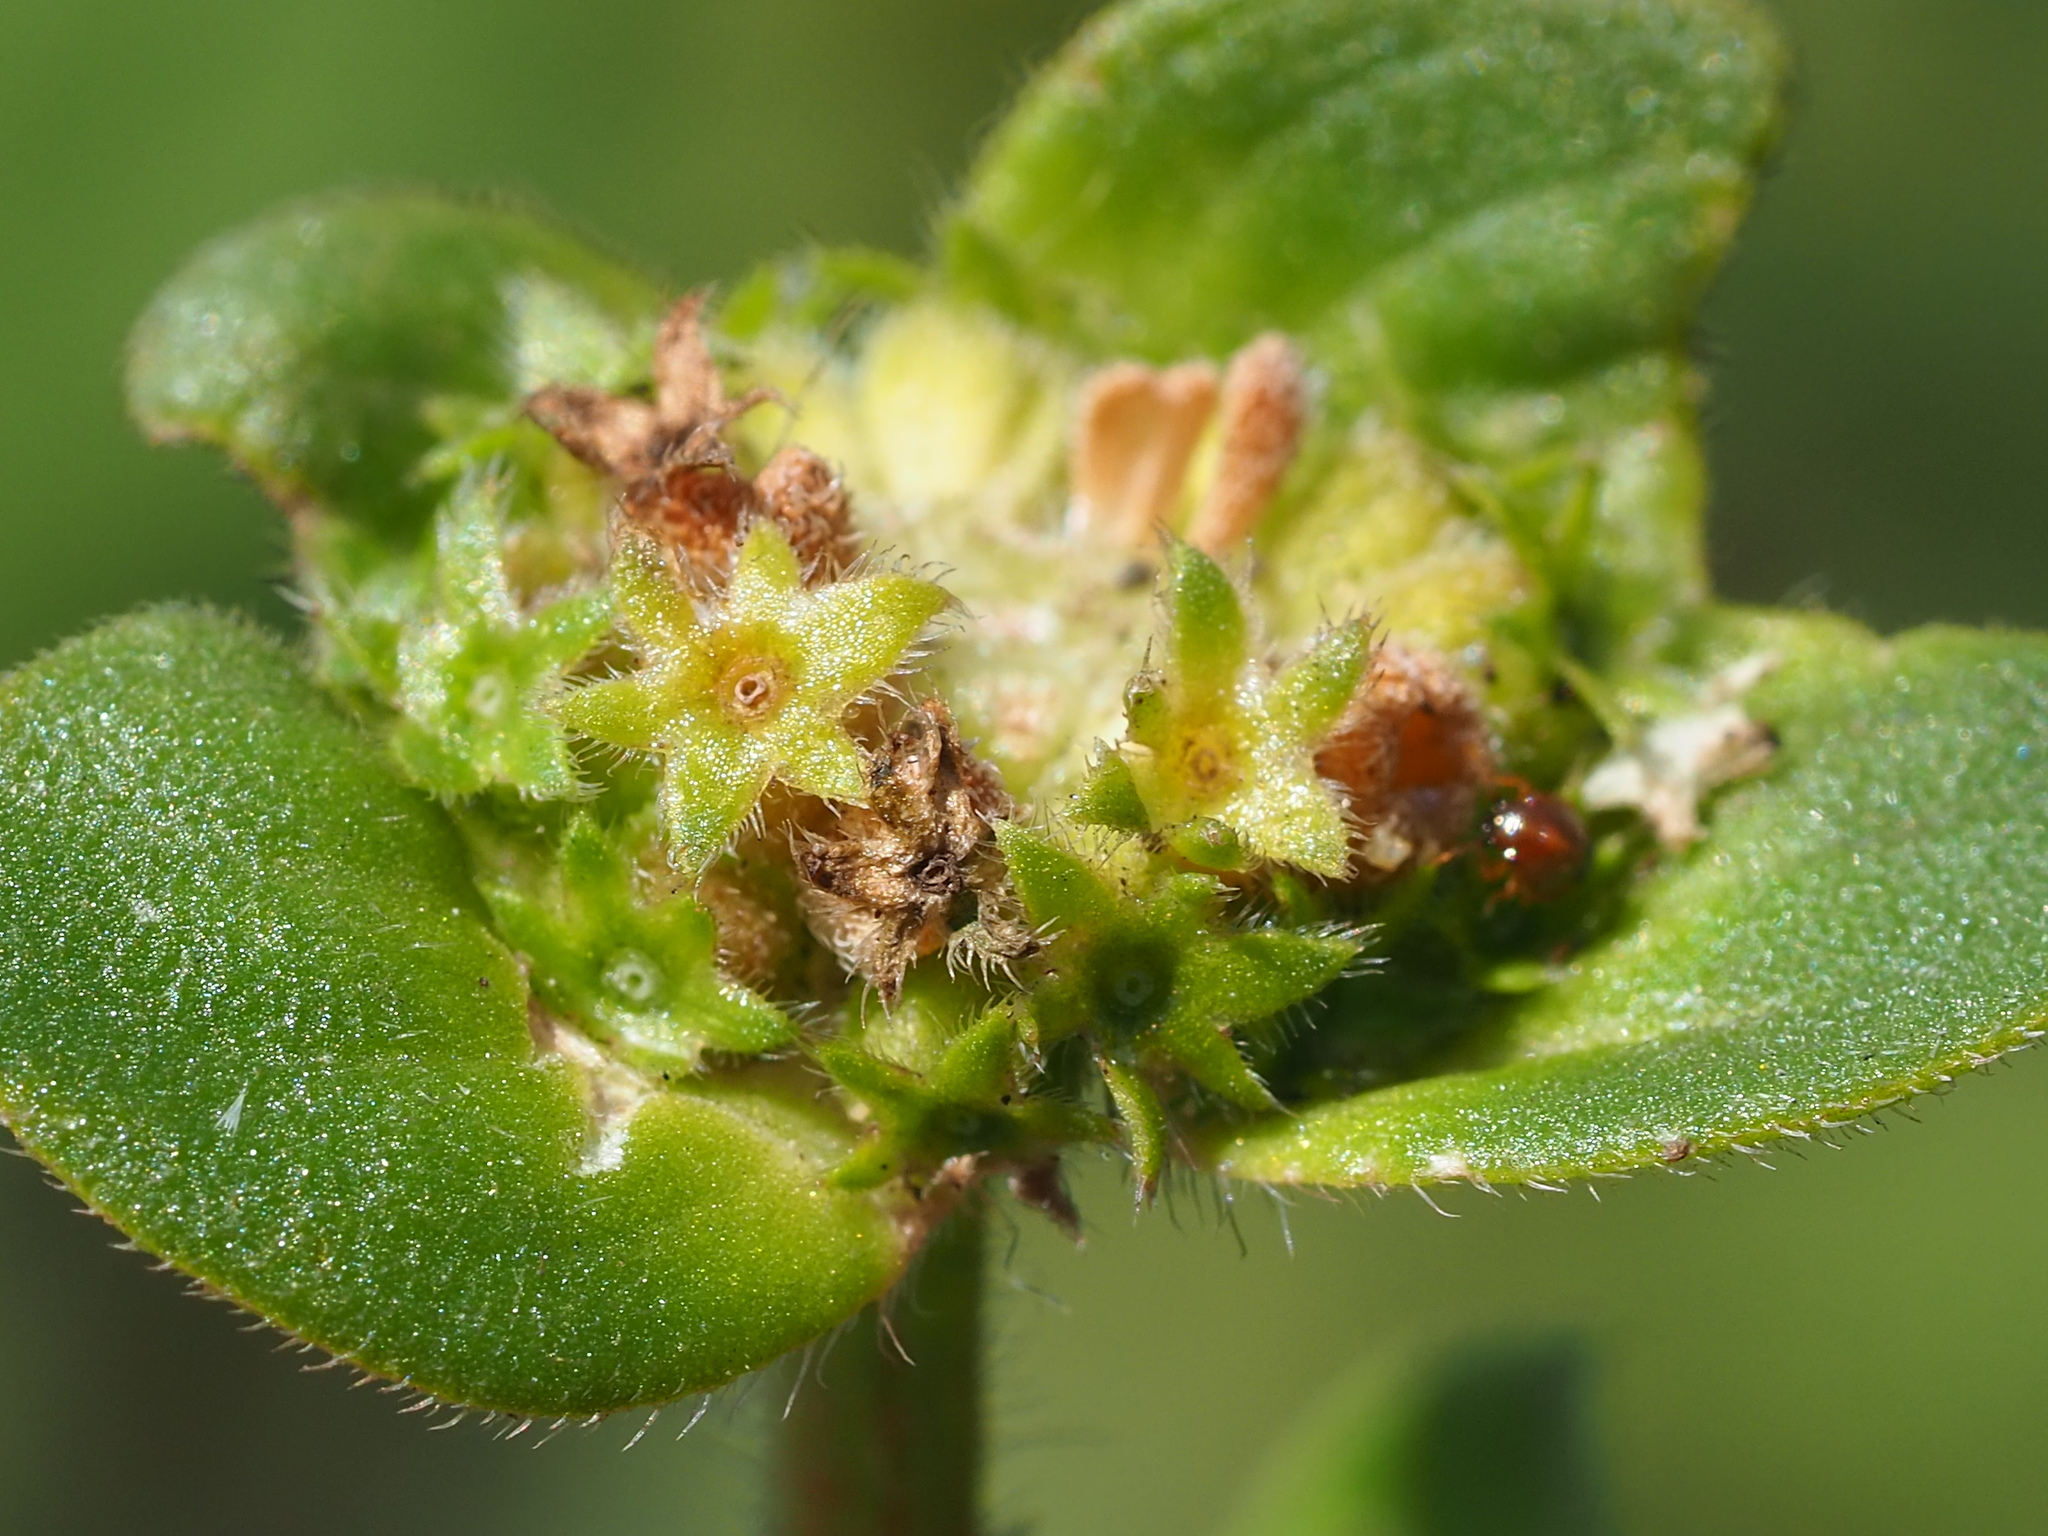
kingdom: Plantae
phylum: Tracheophyta
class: Magnoliopsida
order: Gentianales
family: Rubiaceae
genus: Richardia
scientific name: Richardia scabra
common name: Rough mexican clover
